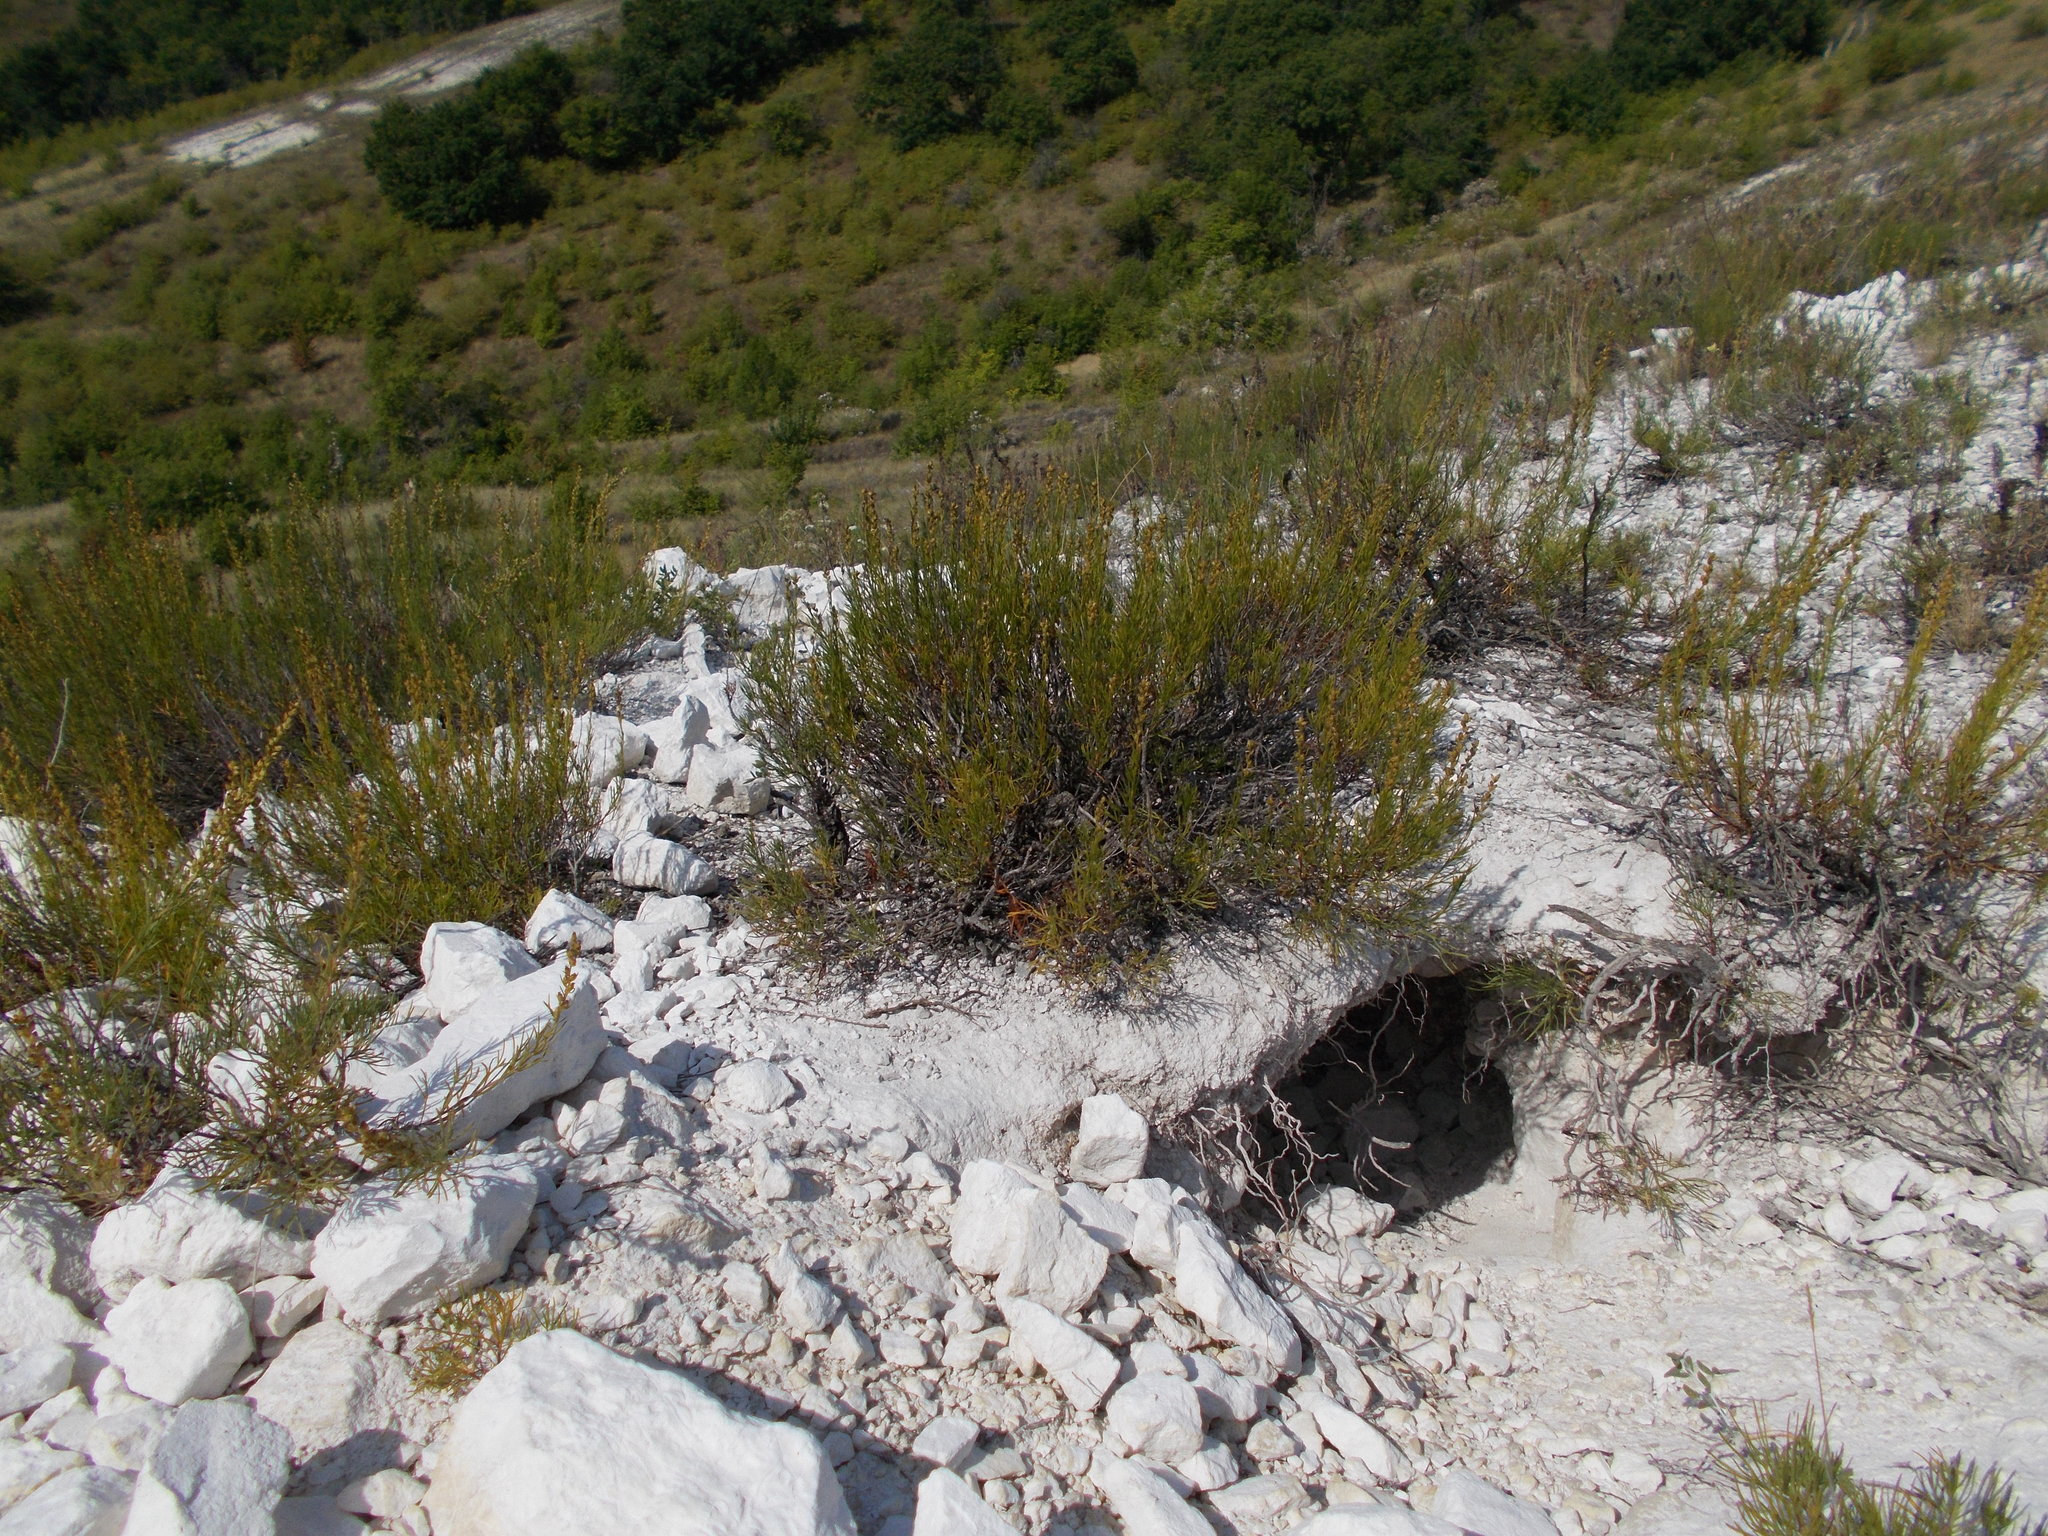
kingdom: Plantae
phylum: Tracheophyta
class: Magnoliopsida
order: Asterales
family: Asteraceae
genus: Artemisia
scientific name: Artemisia salsoloides
